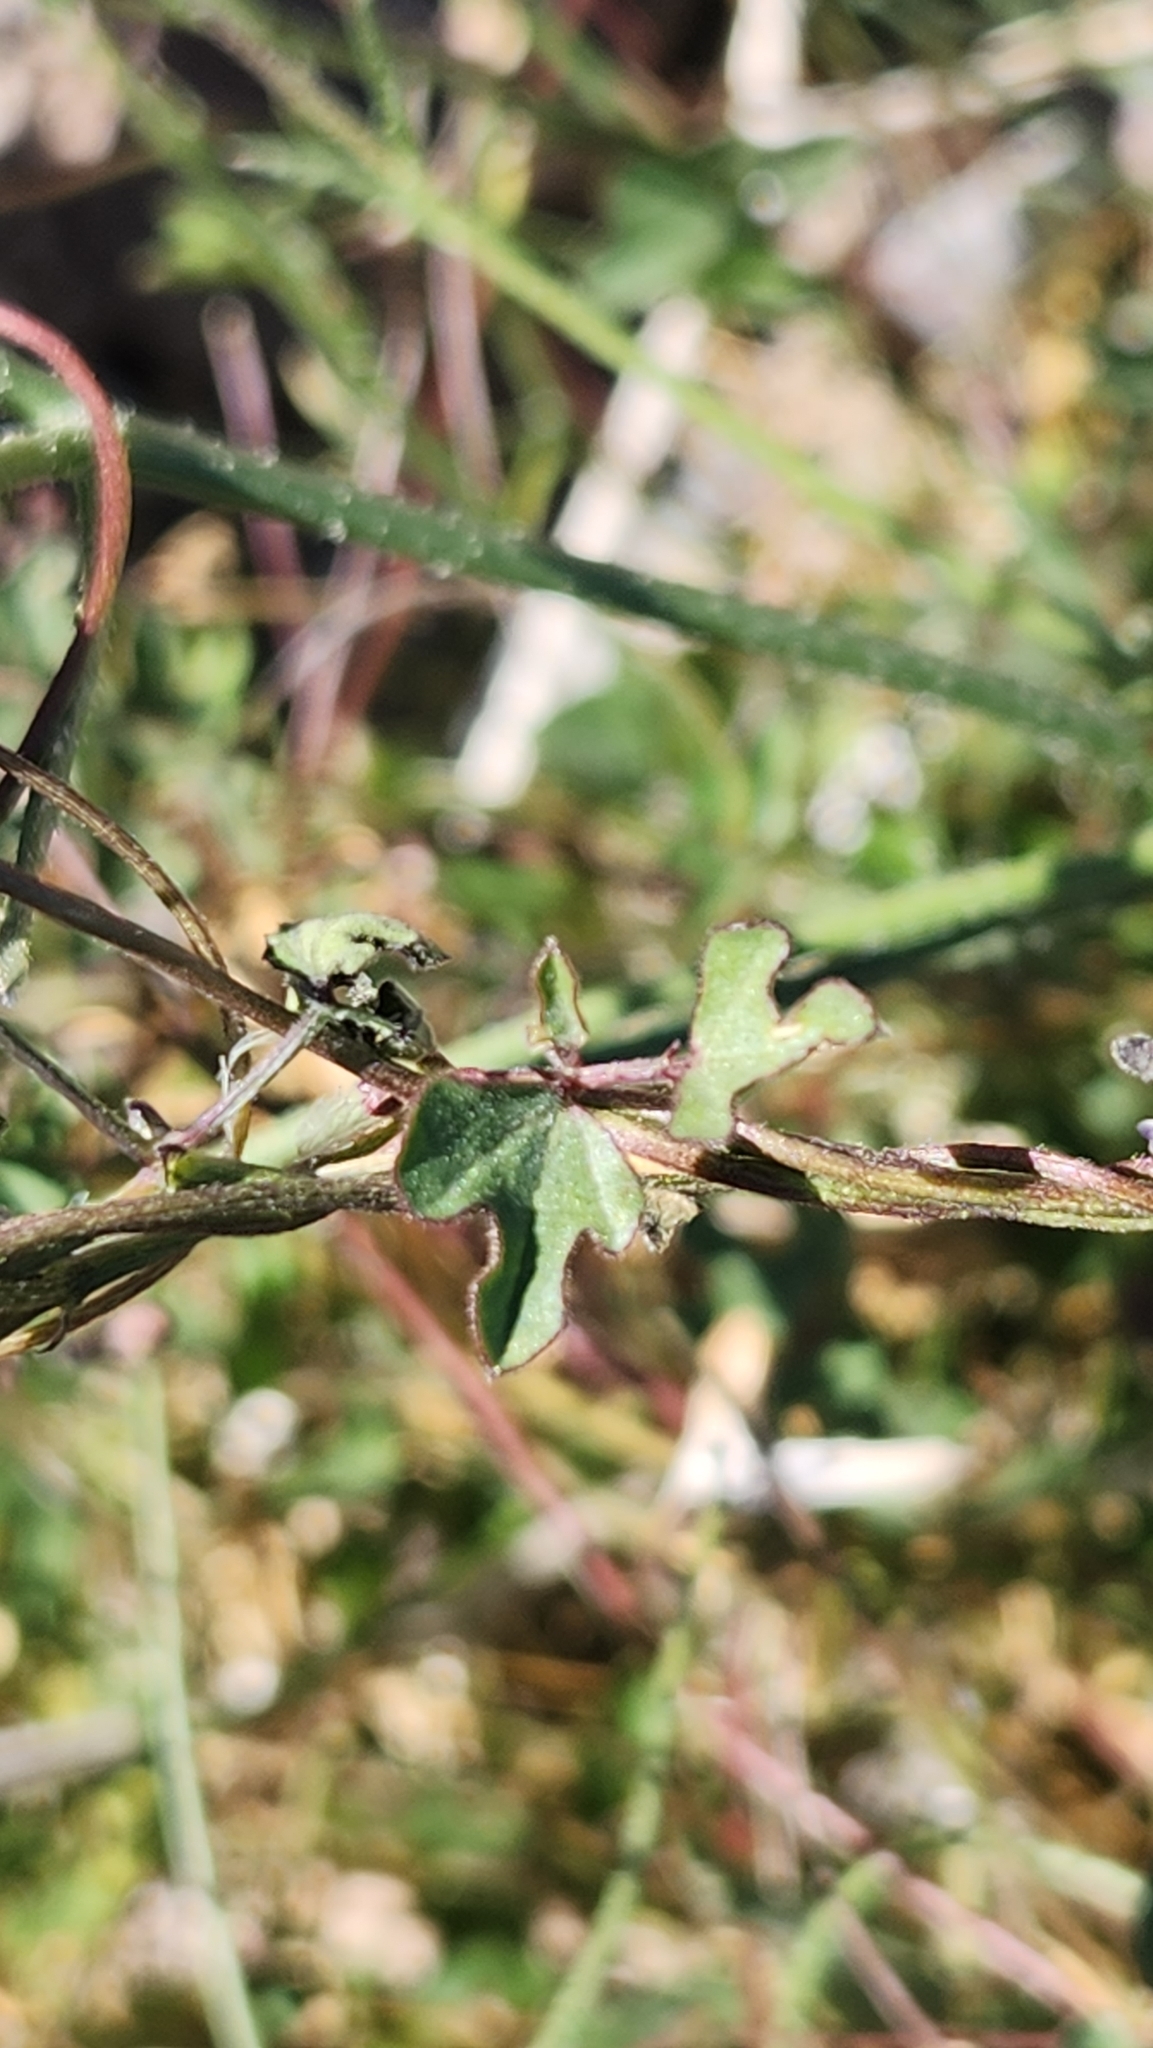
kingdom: Plantae
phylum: Tracheophyta
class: Magnoliopsida
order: Fabales
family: Fabaceae
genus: Phaseolus
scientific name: Phaseolus filiformis
